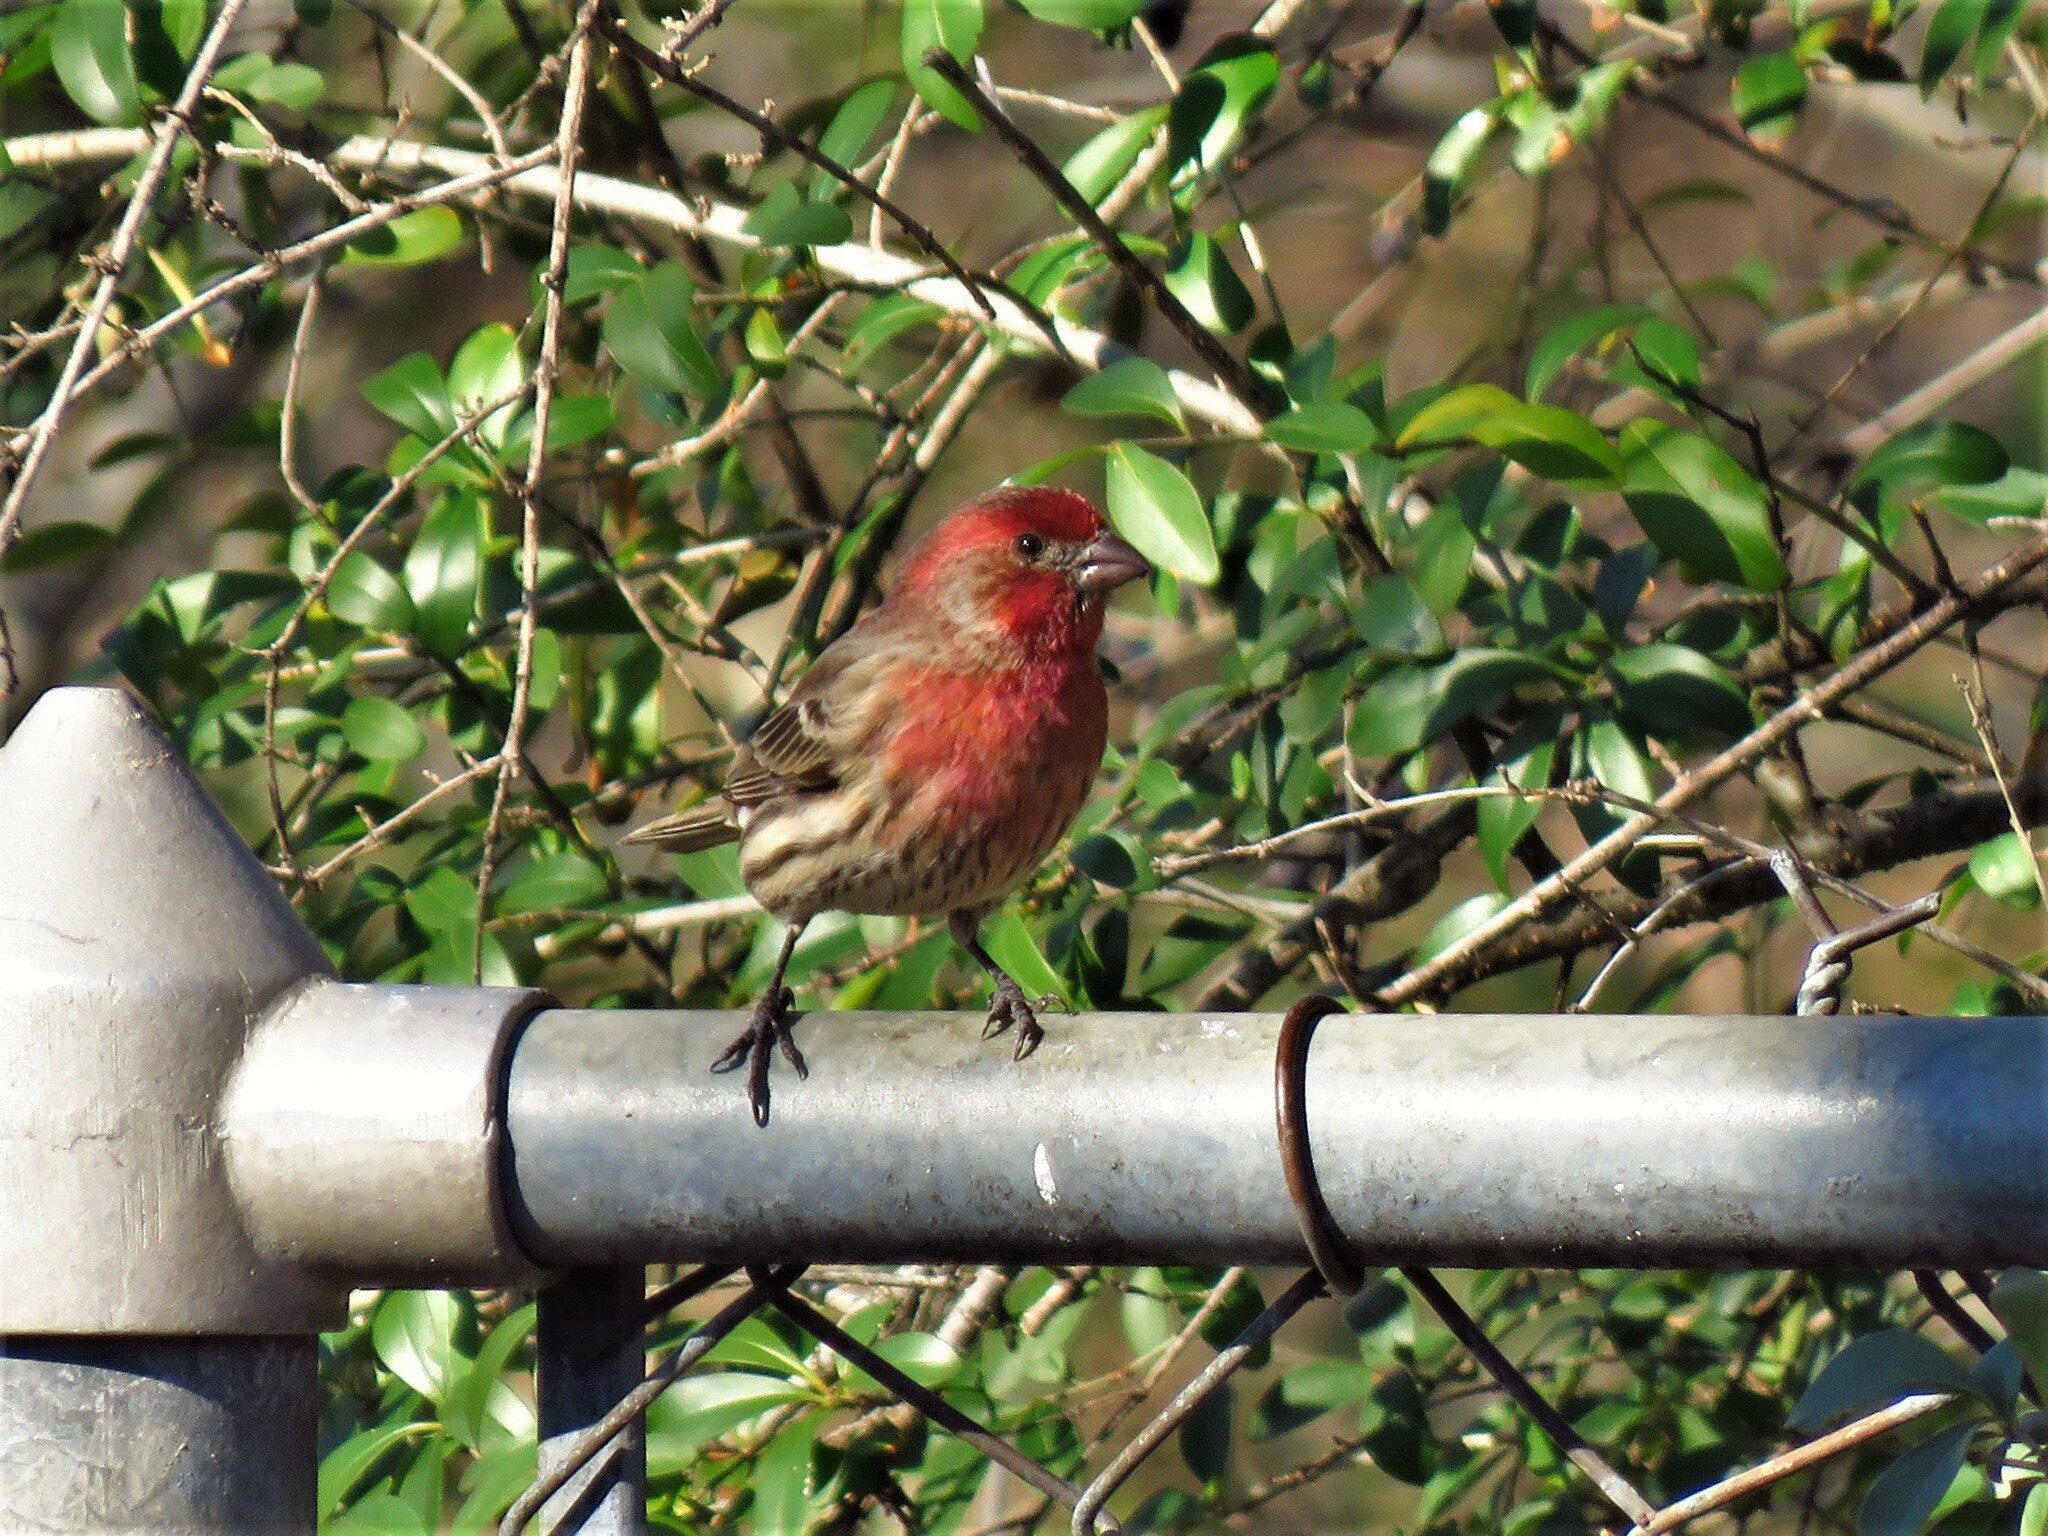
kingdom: Animalia
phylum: Chordata
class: Aves
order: Passeriformes
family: Fringillidae
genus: Haemorhous
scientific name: Haemorhous mexicanus
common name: House finch
